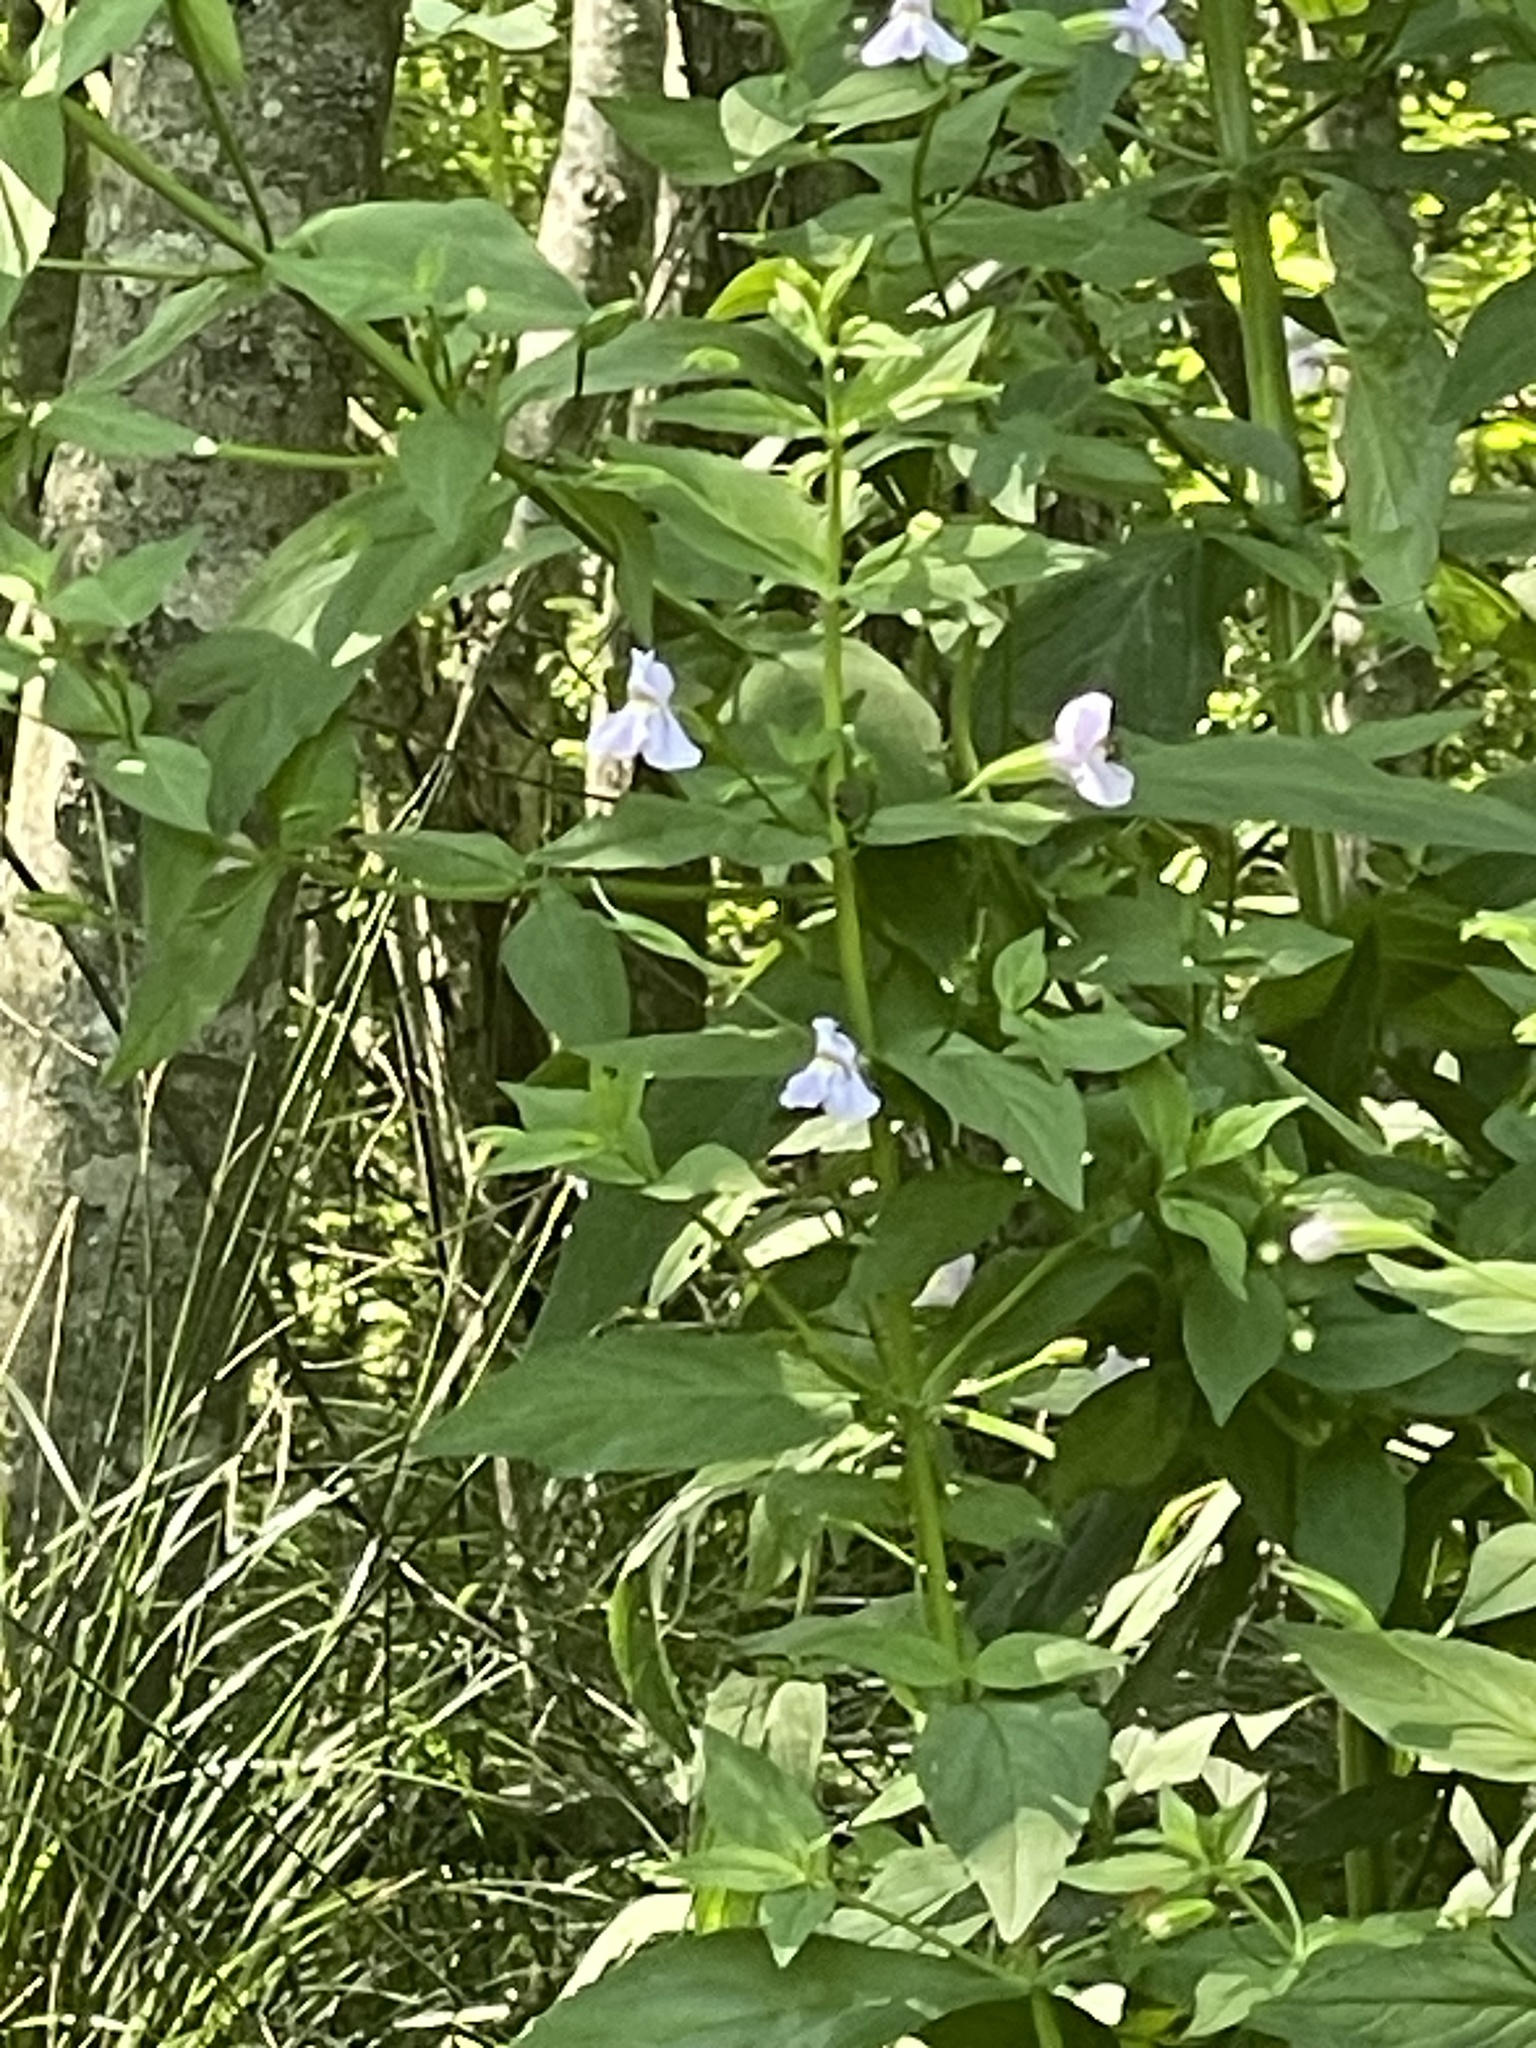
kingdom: Plantae
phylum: Tracheophyta
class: Magnoliopsida
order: Lamiales
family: Phrymaceae
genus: Mimulus
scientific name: Mimulus ringens
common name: Allegheny monkeyflower
